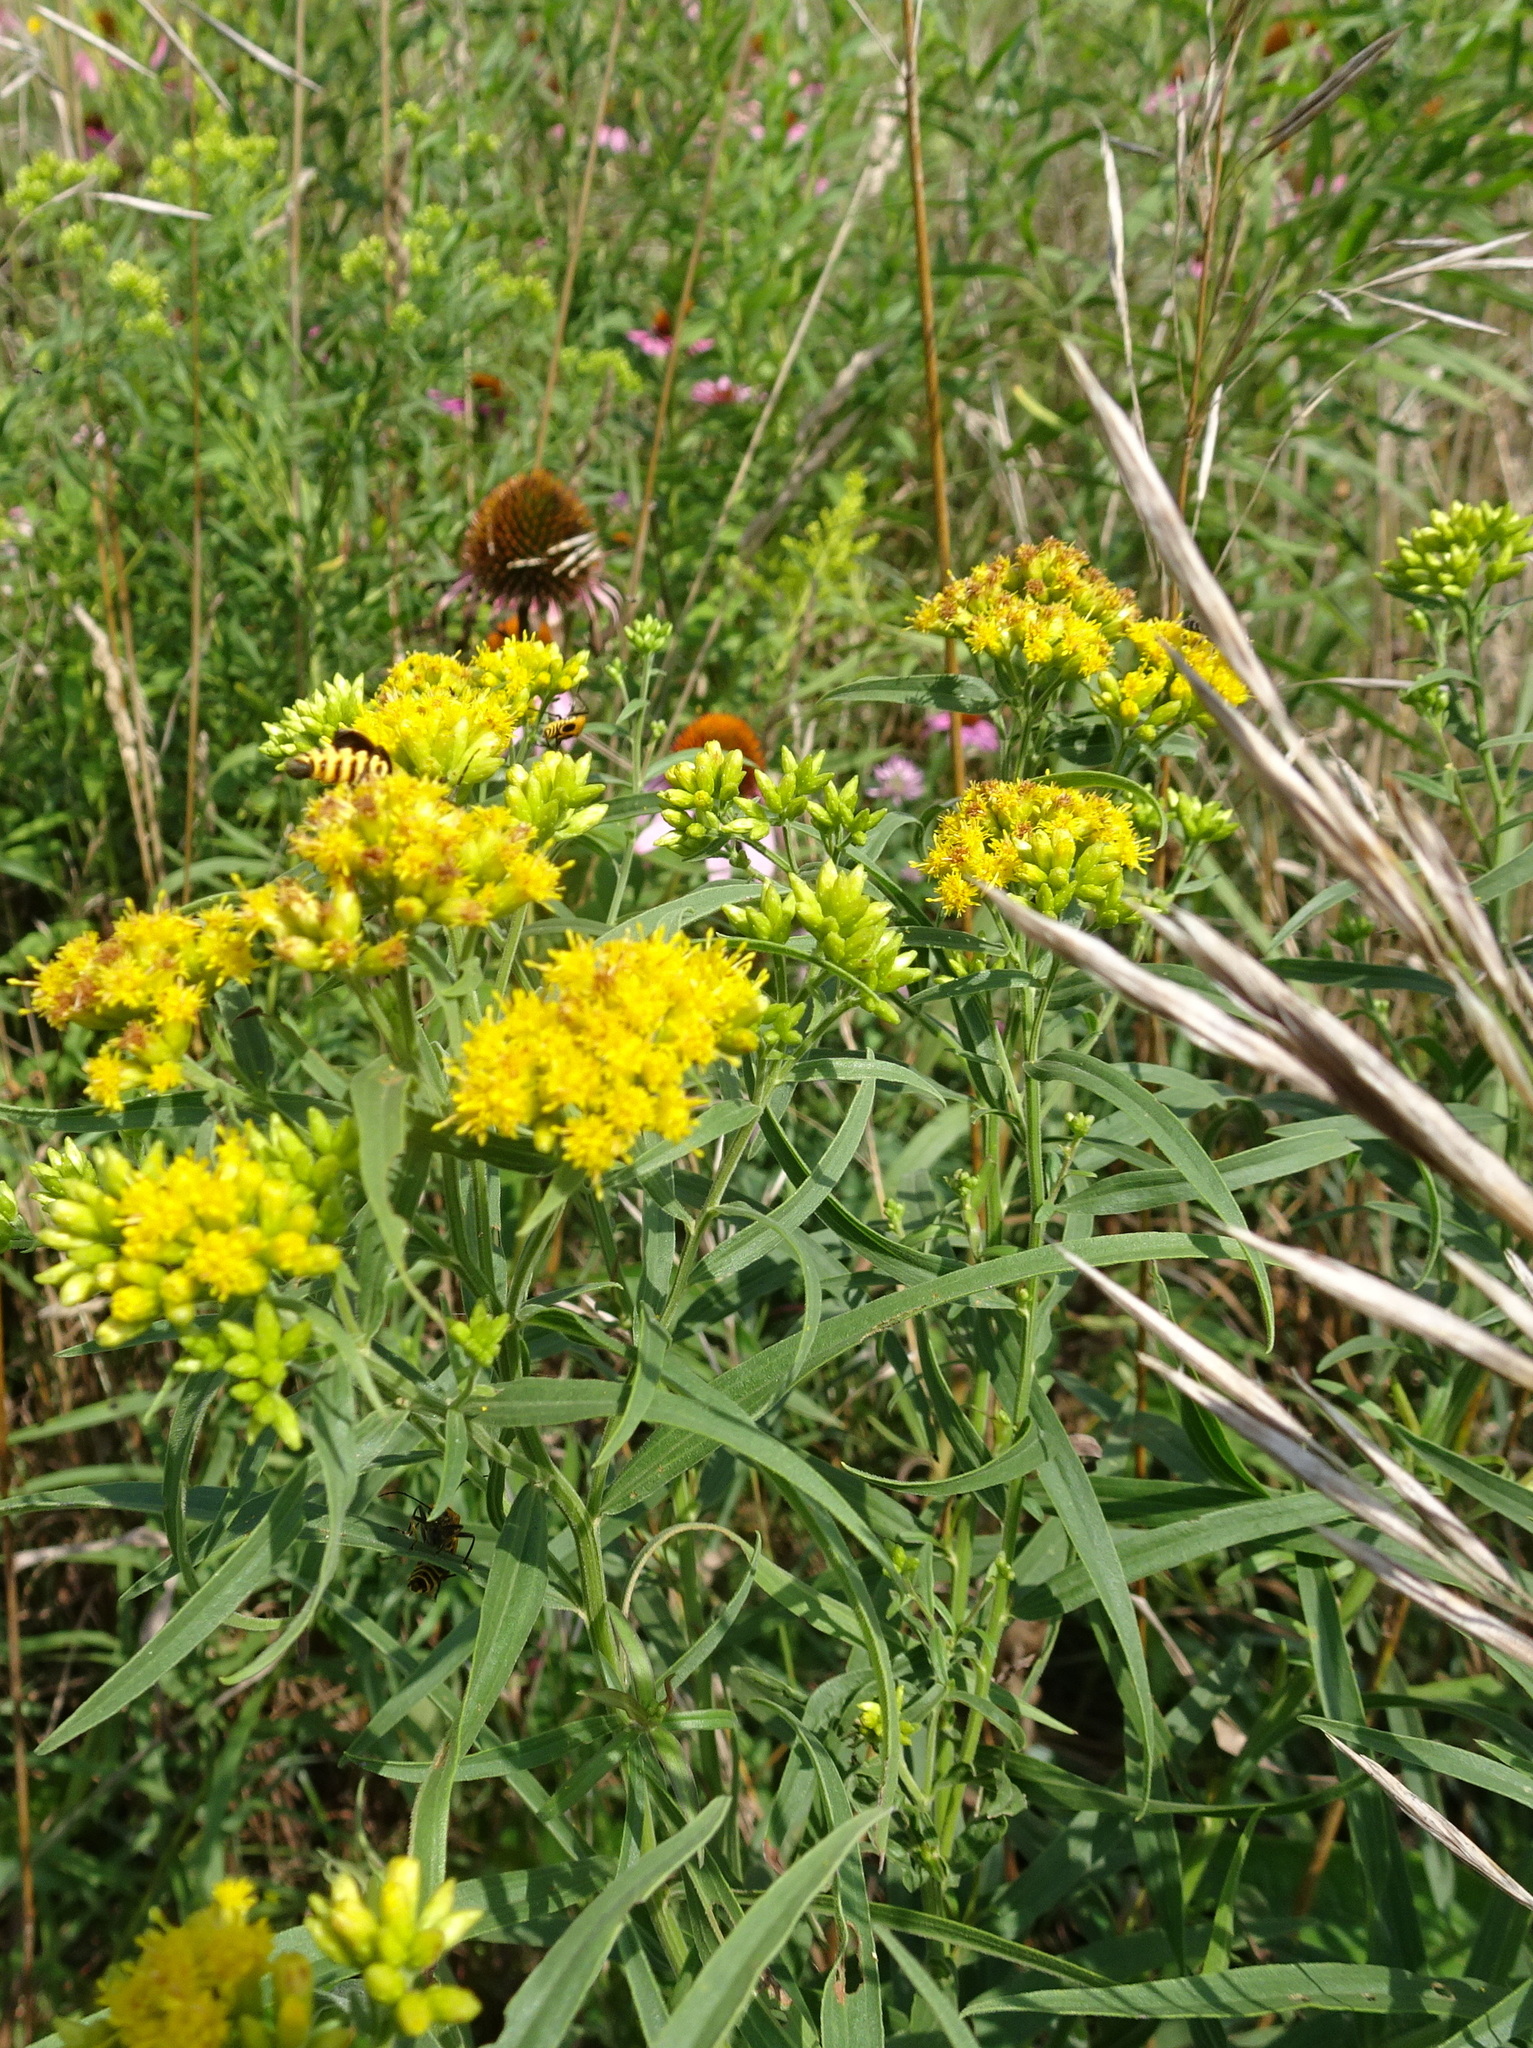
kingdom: Plantae
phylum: Tracheophyta
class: Magnoliopsida
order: Asterales
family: Asteraceae
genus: Euthamia
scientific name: Euthamia graminifolia
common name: Common goldentop
